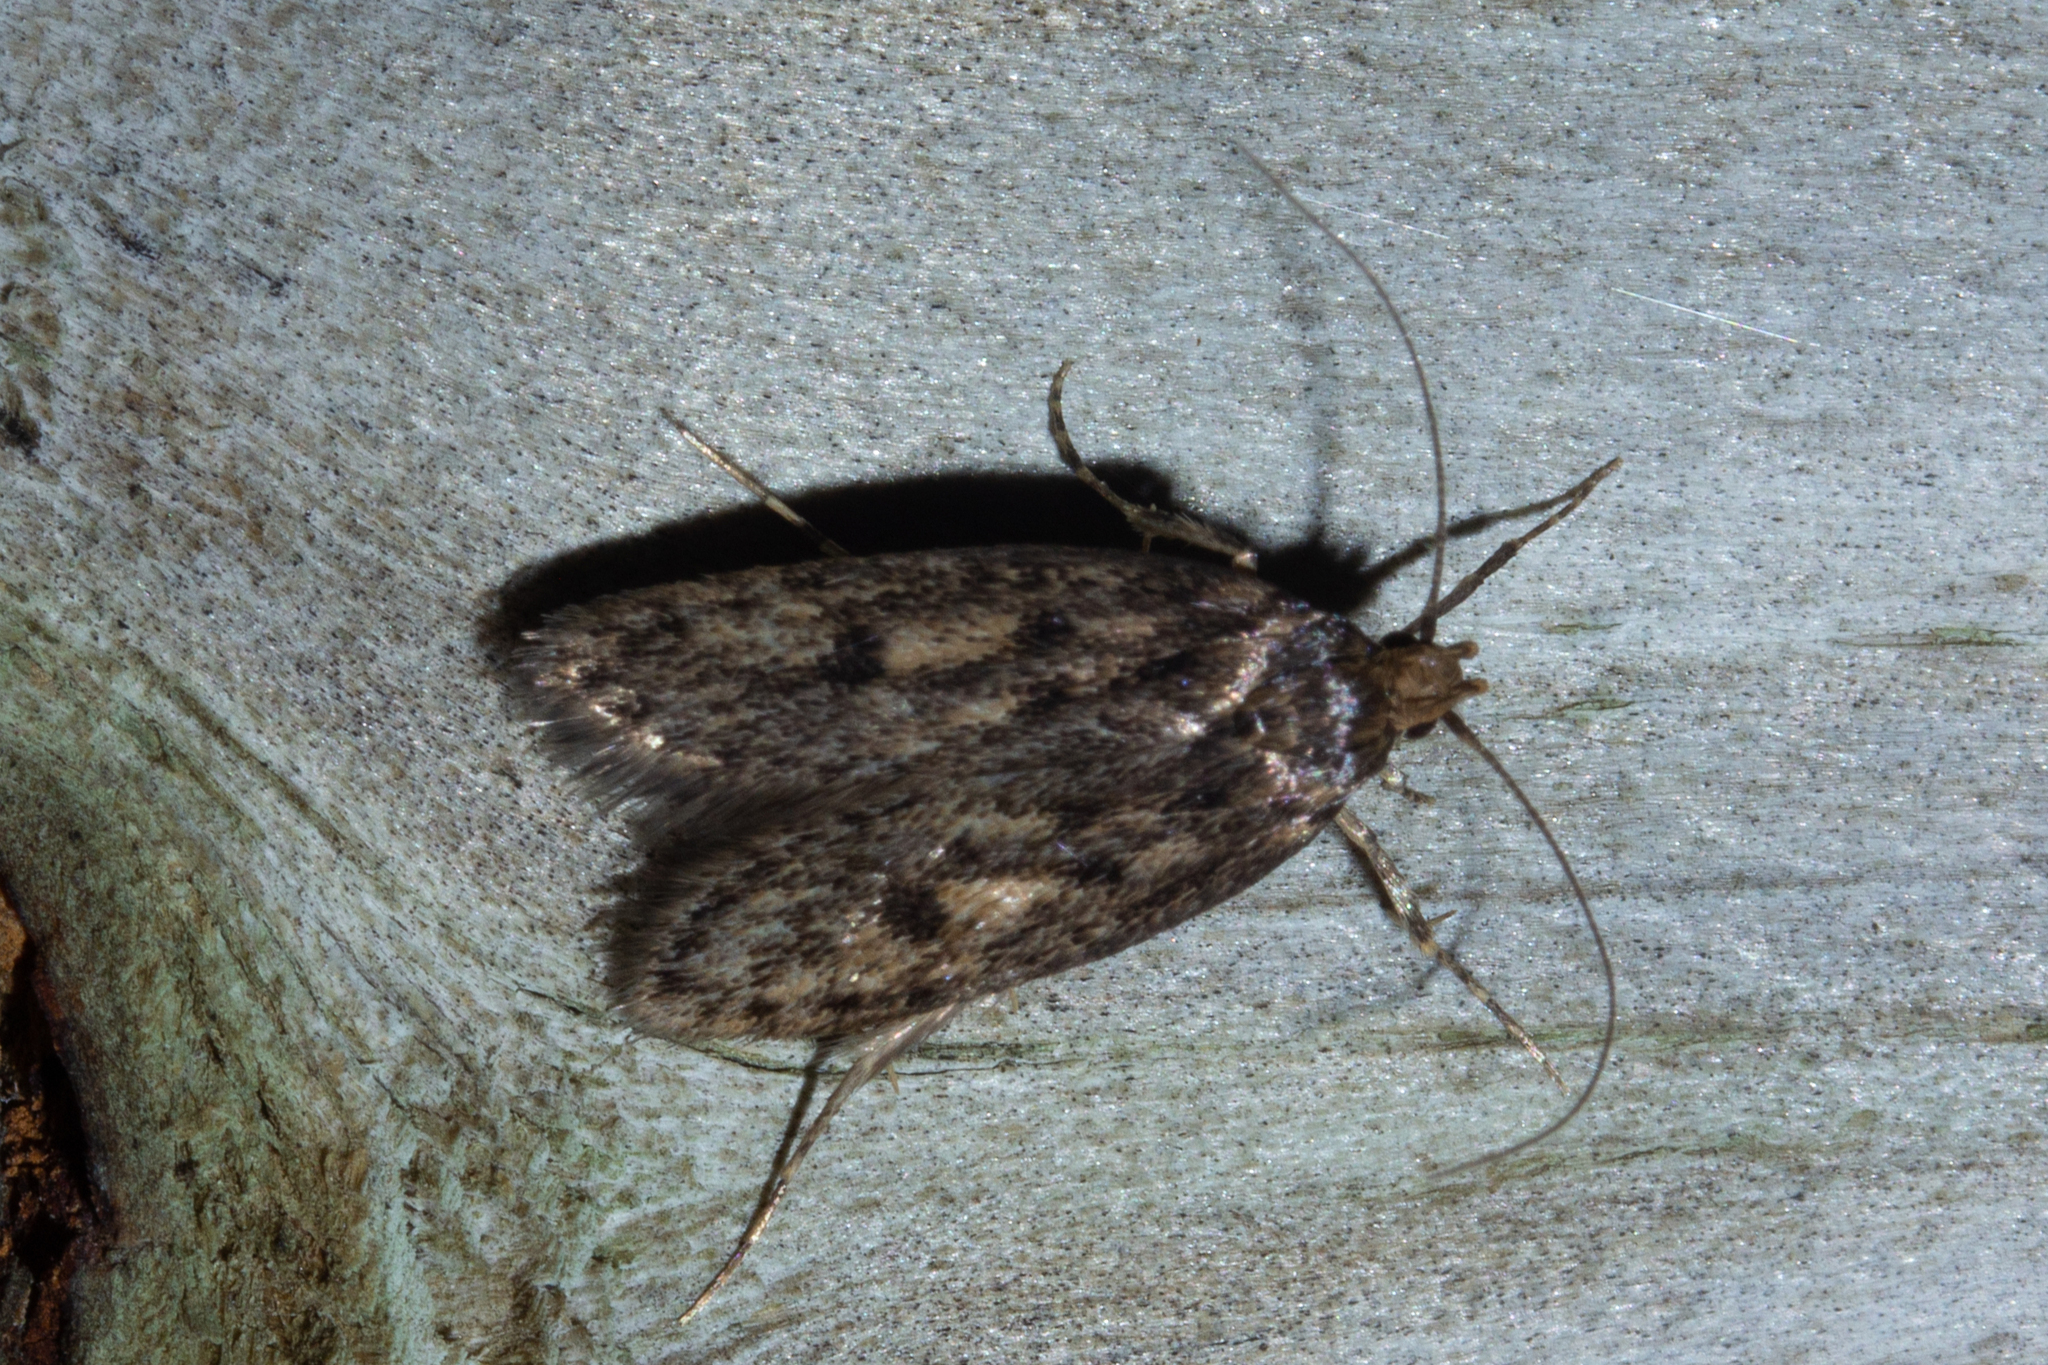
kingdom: Animalia
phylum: Arthropoda
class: Insecta
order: Lepidoptera
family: Oecophoridae
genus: Hofmannophila
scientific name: Hofmannophila pseudospretella
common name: Brown house moth
